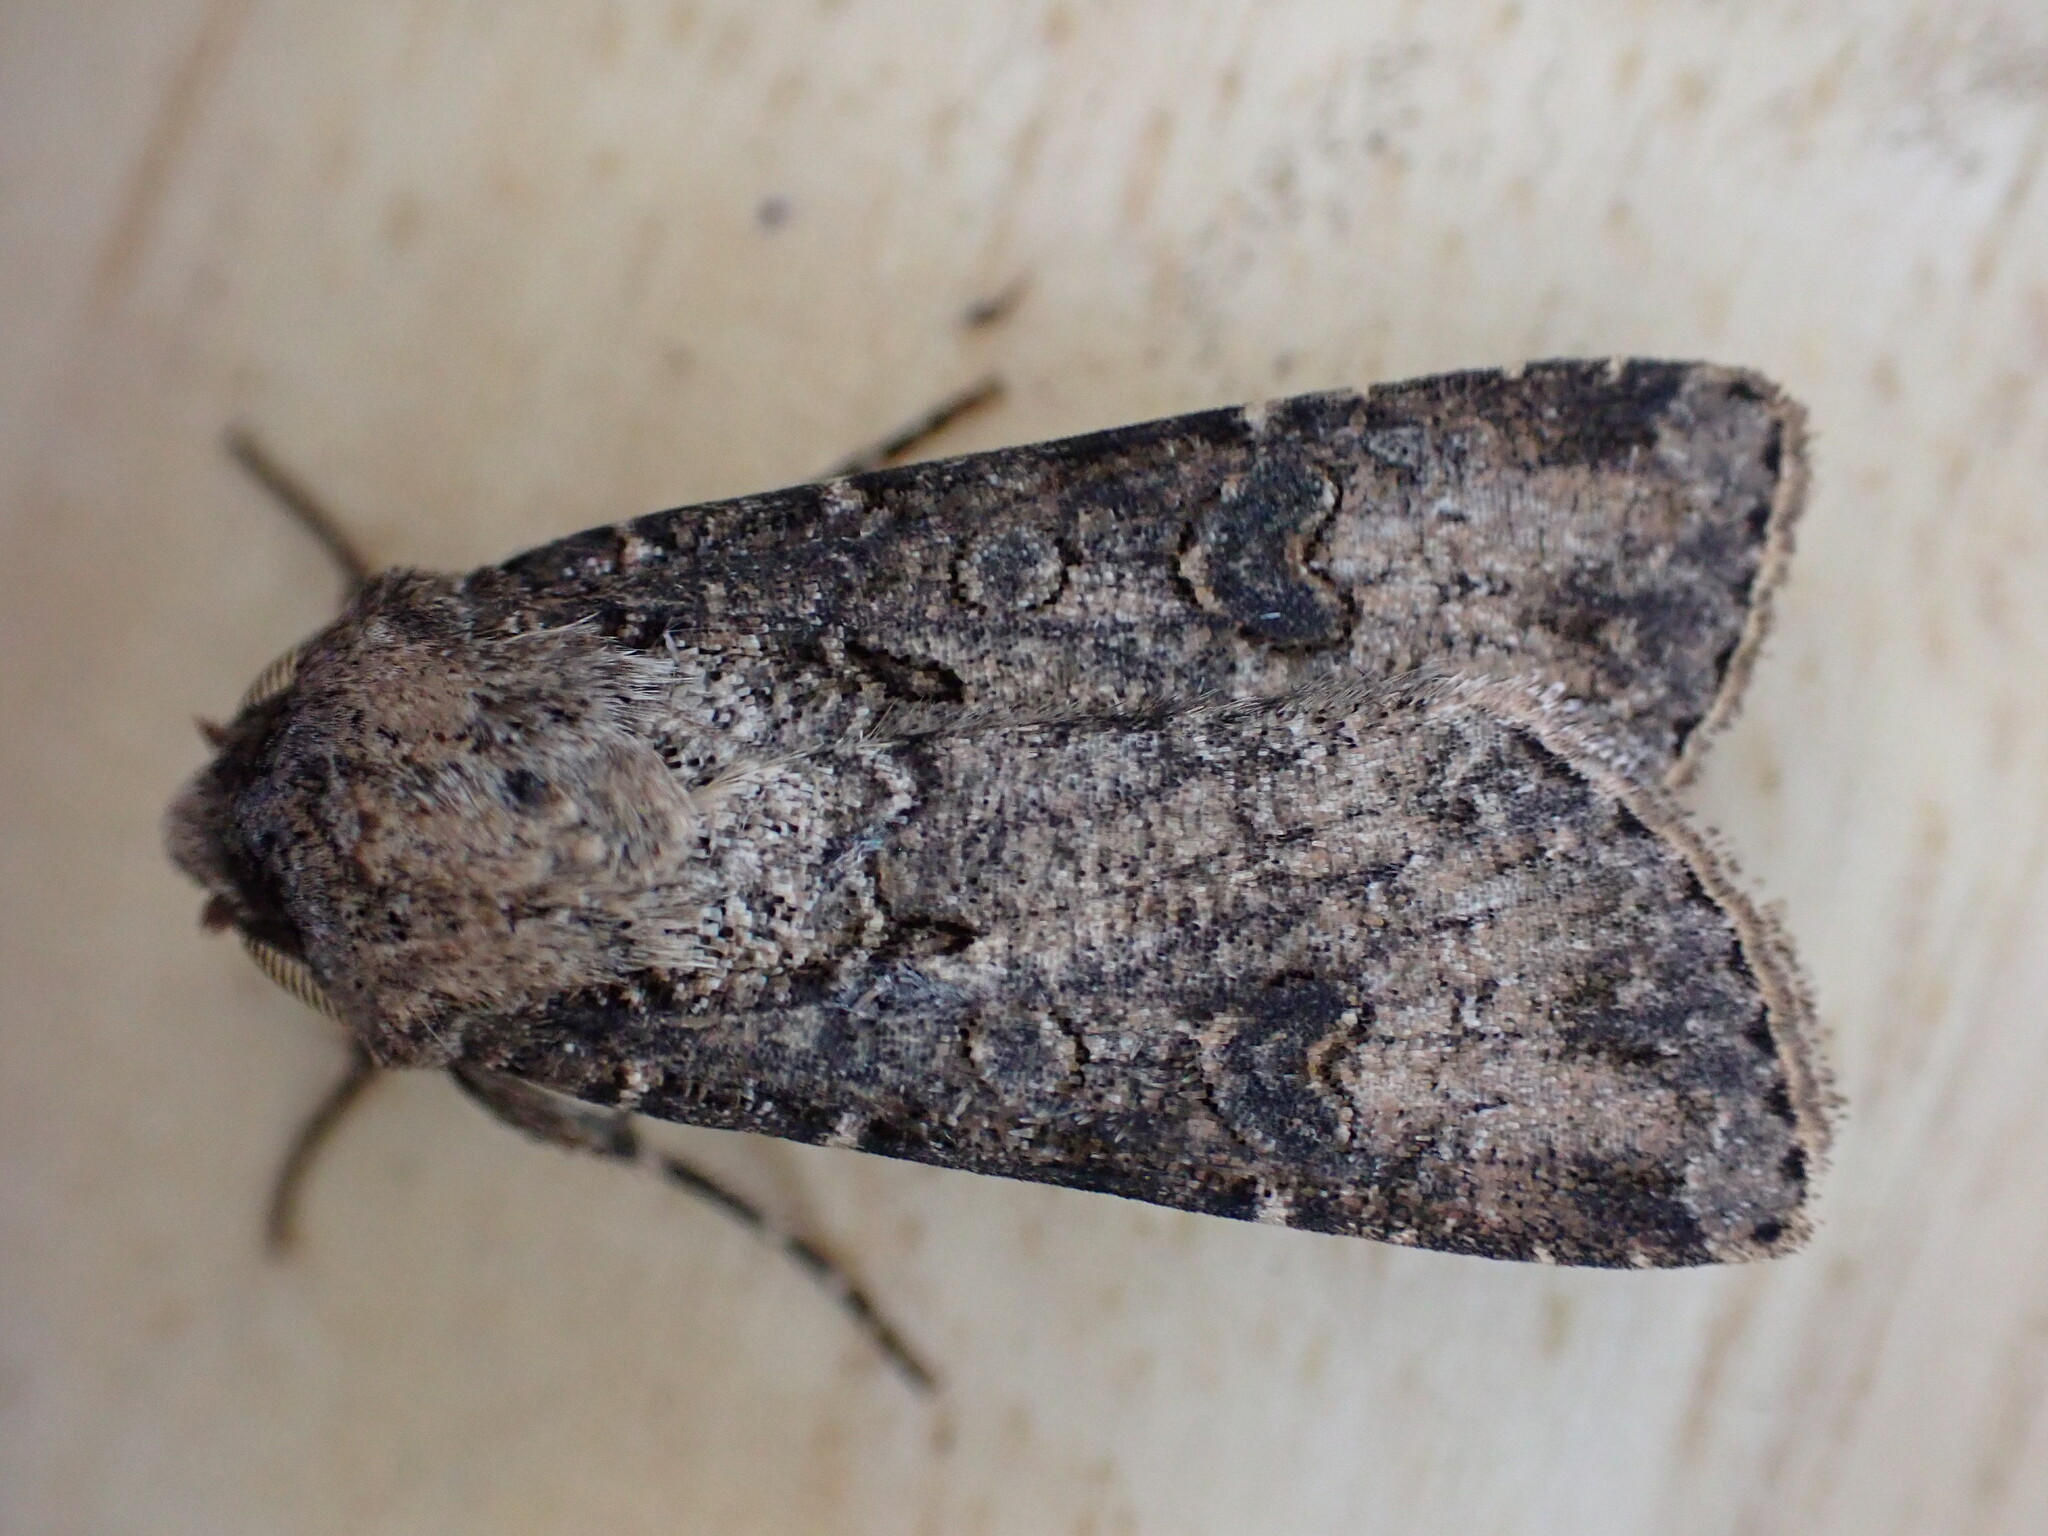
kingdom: Animalia
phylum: Arthropoda
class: Insecta
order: Lepidoptera
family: Noctuidae
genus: Agrotis
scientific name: Agrotis segetum
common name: Turnip moth
